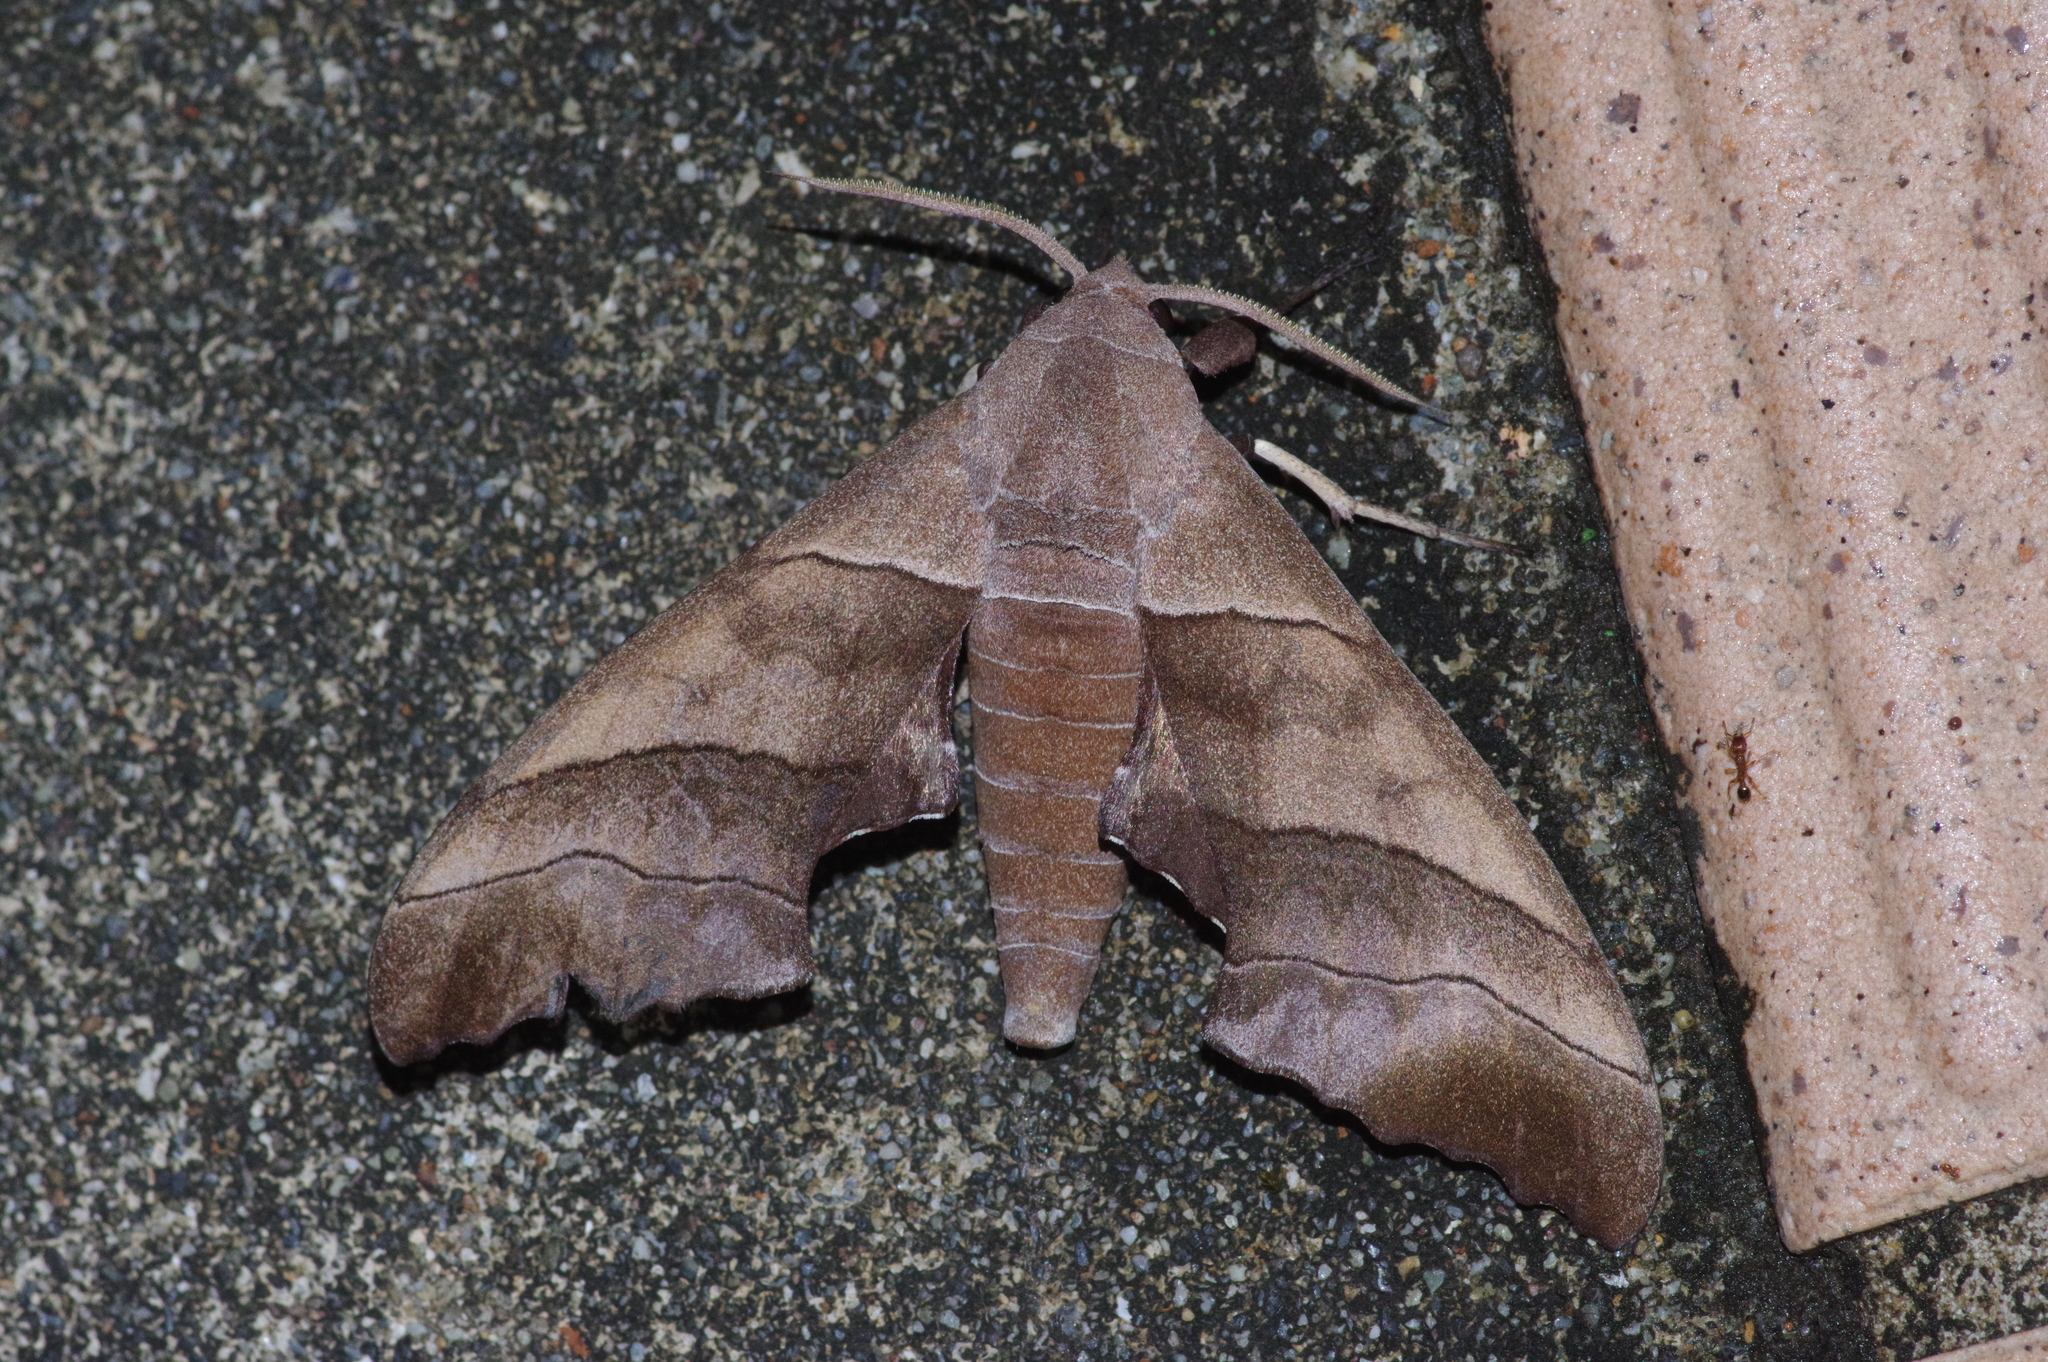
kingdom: Animalia
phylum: Arthropoda
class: Insecta
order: Lepidoptera
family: Sphingidae
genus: Polyptychus
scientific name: Polyptychus chinensis
